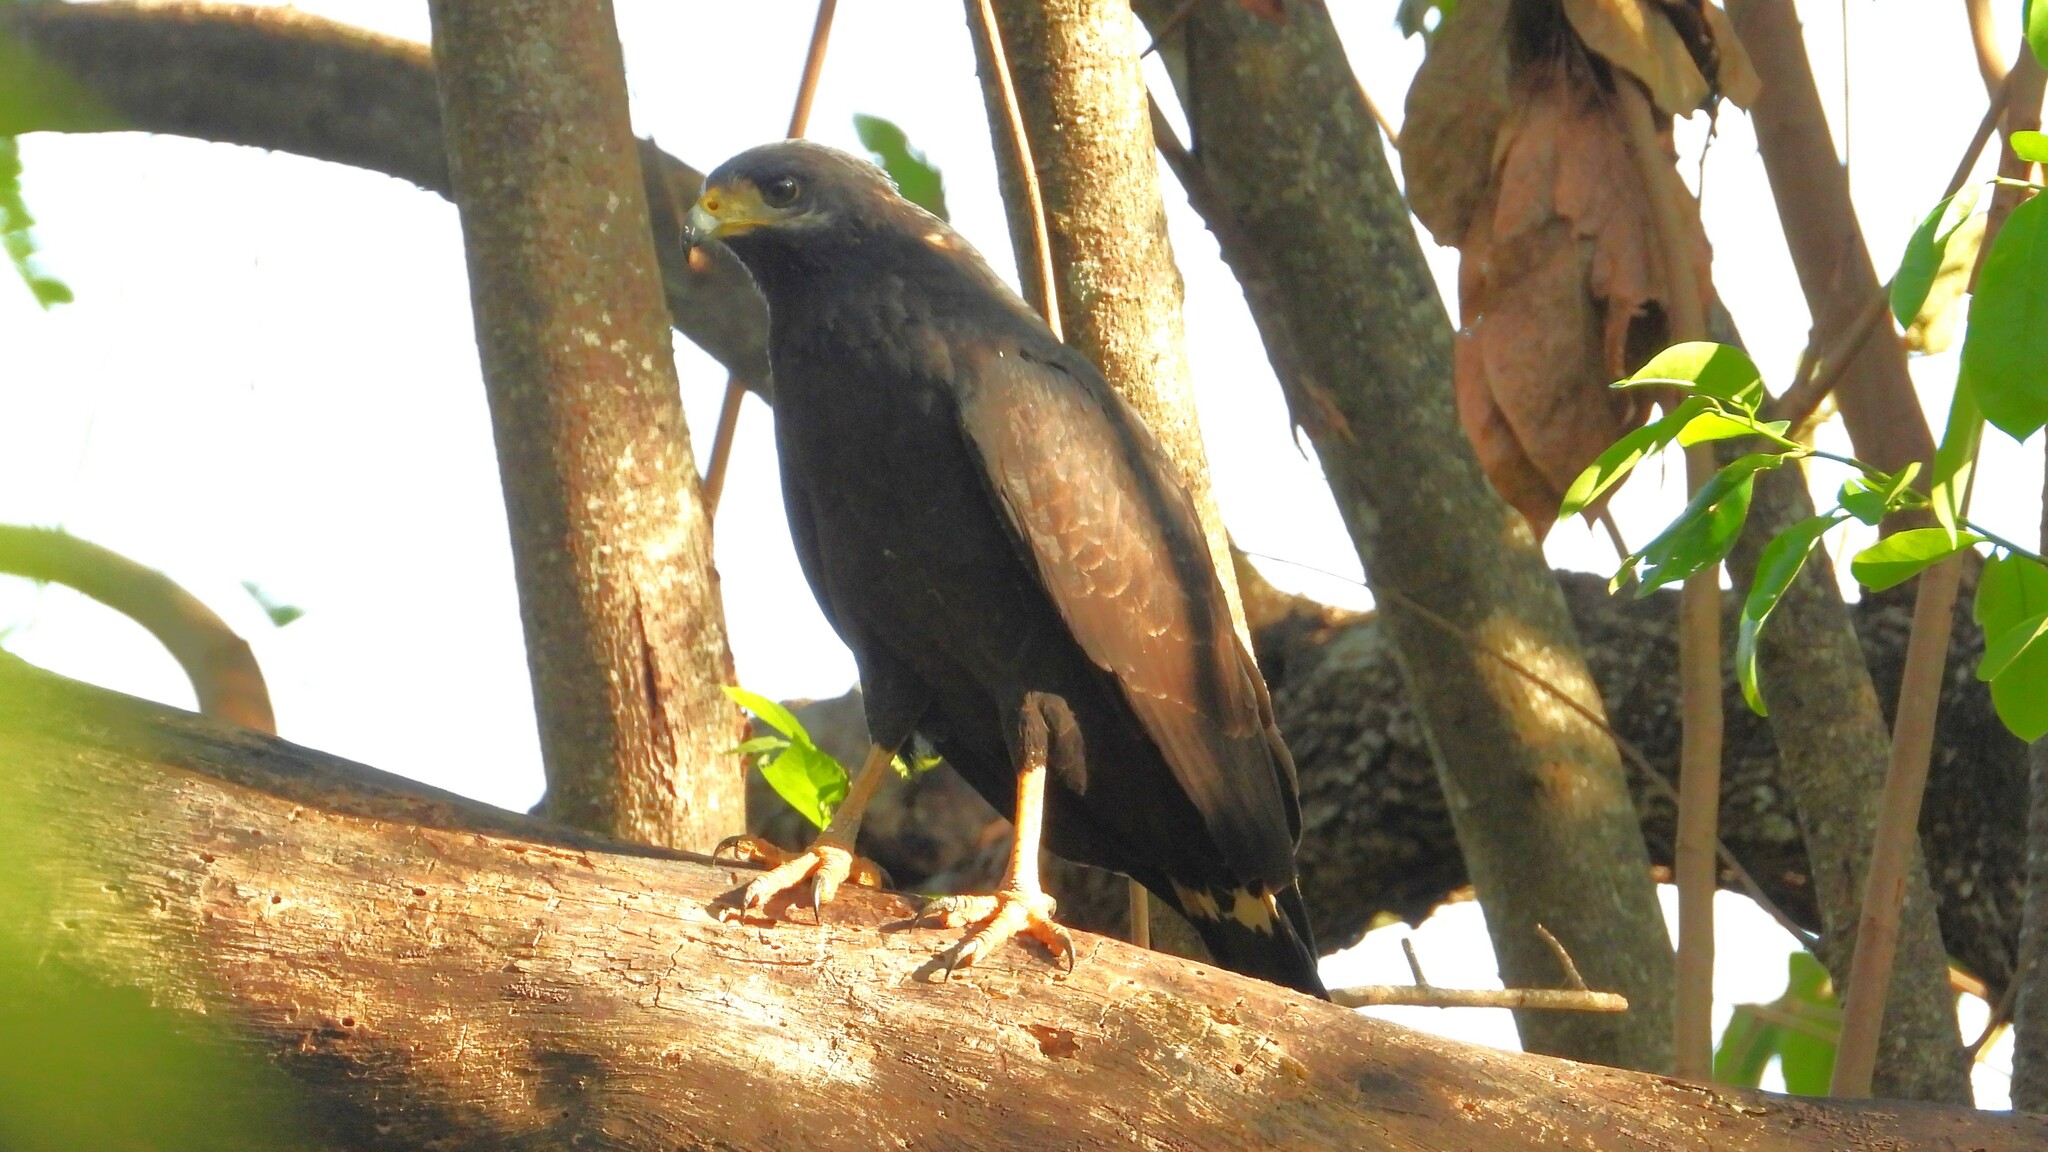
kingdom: Animalia
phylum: Chordata
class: Aves
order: Accipitriformes
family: Accipitridae
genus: Buteogallus
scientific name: Buteogallus anthracinus
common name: Common black hawk
